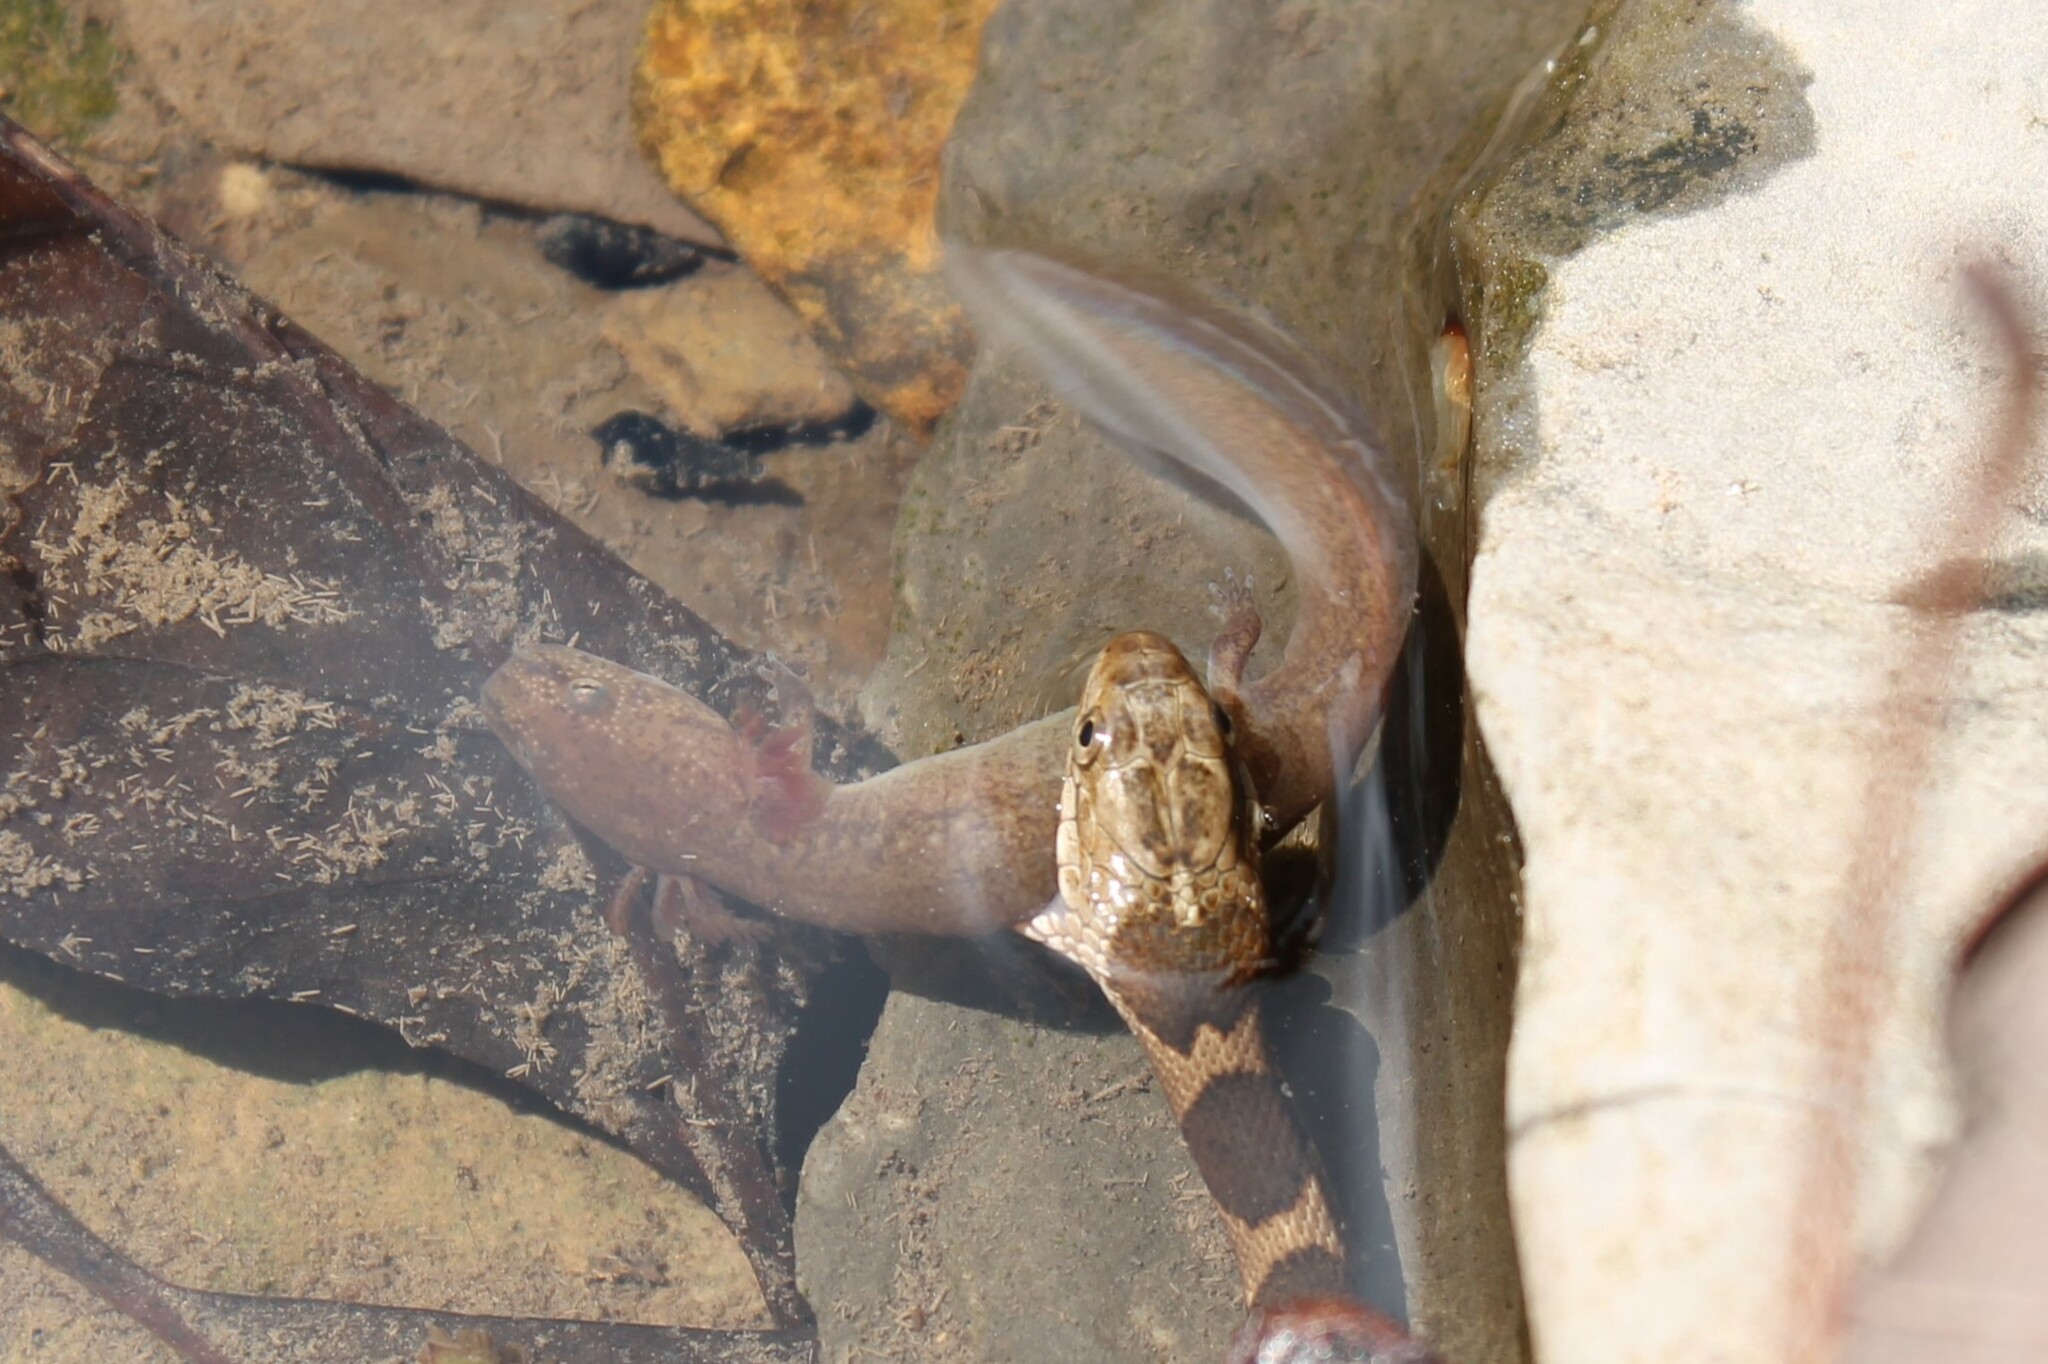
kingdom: Animalia
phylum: Chordata
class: Amphibia
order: Caudata
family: Plethodontidae
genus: Pseudotriton
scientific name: Pseudotriton ruber
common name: Red salamander
